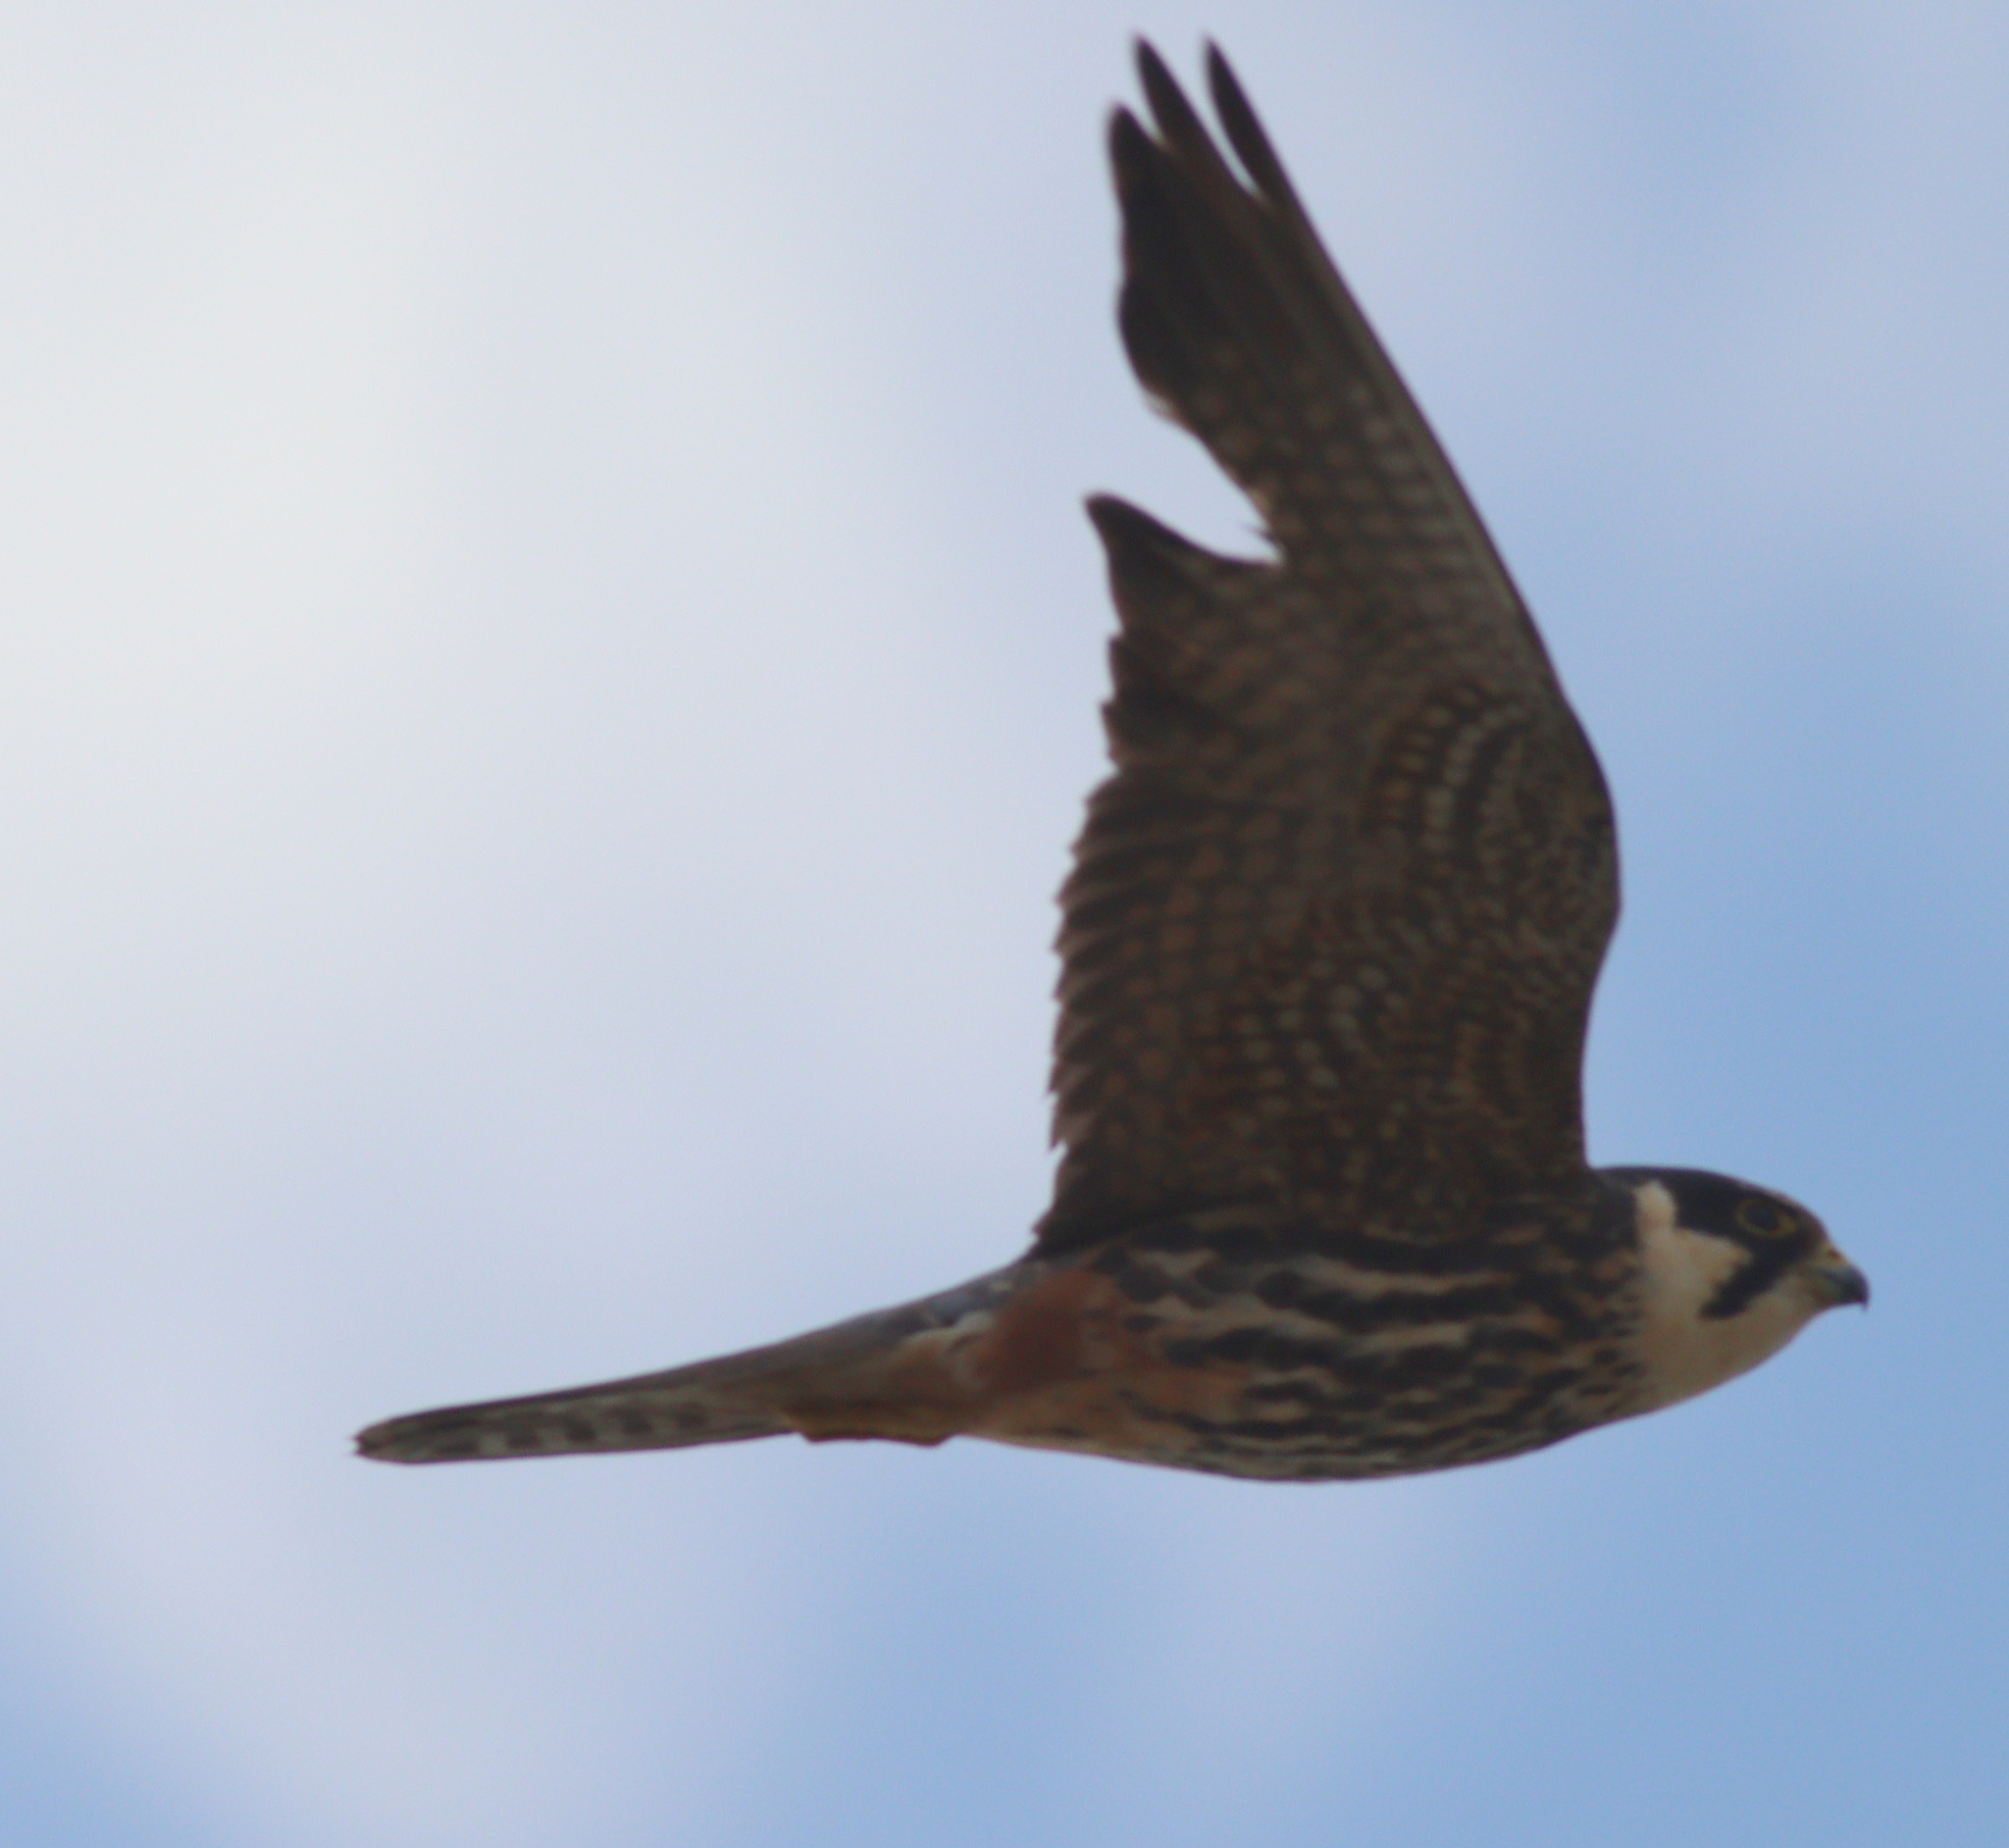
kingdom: Animalia
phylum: Chordata
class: Aves
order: Falconiformes
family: Falconidae
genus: Falco
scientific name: Falco subbuteo
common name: Eurasian hobby
